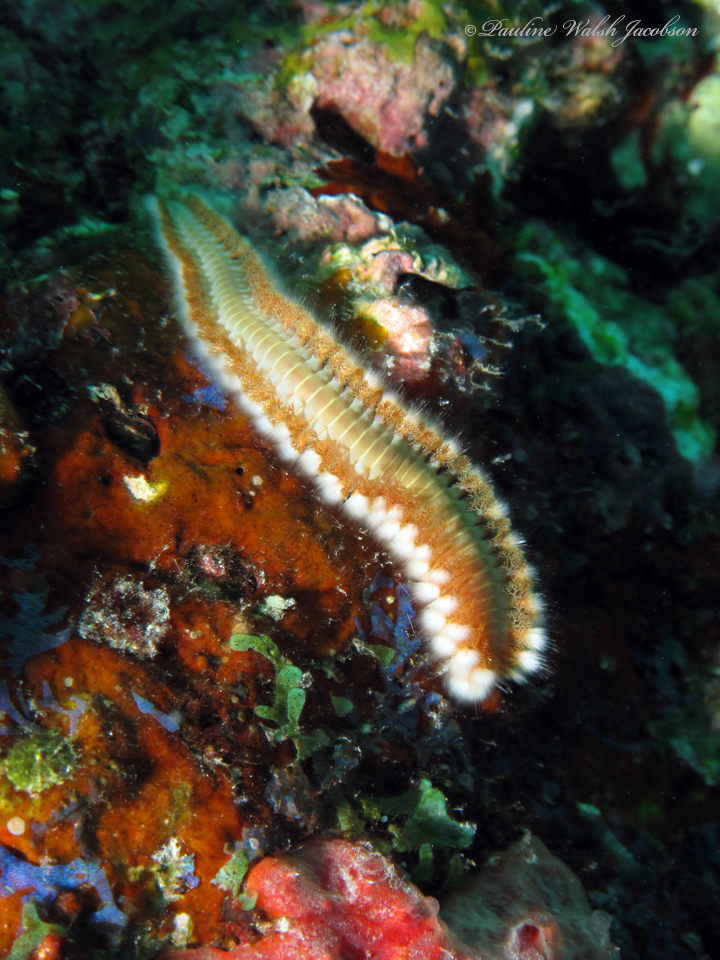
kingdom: Animalia
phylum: Annelida
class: Polychaeta
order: Amphinomida
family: Amphinomidae
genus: Hermodice
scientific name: Hermodice carunculata
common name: Bearded fireworm
